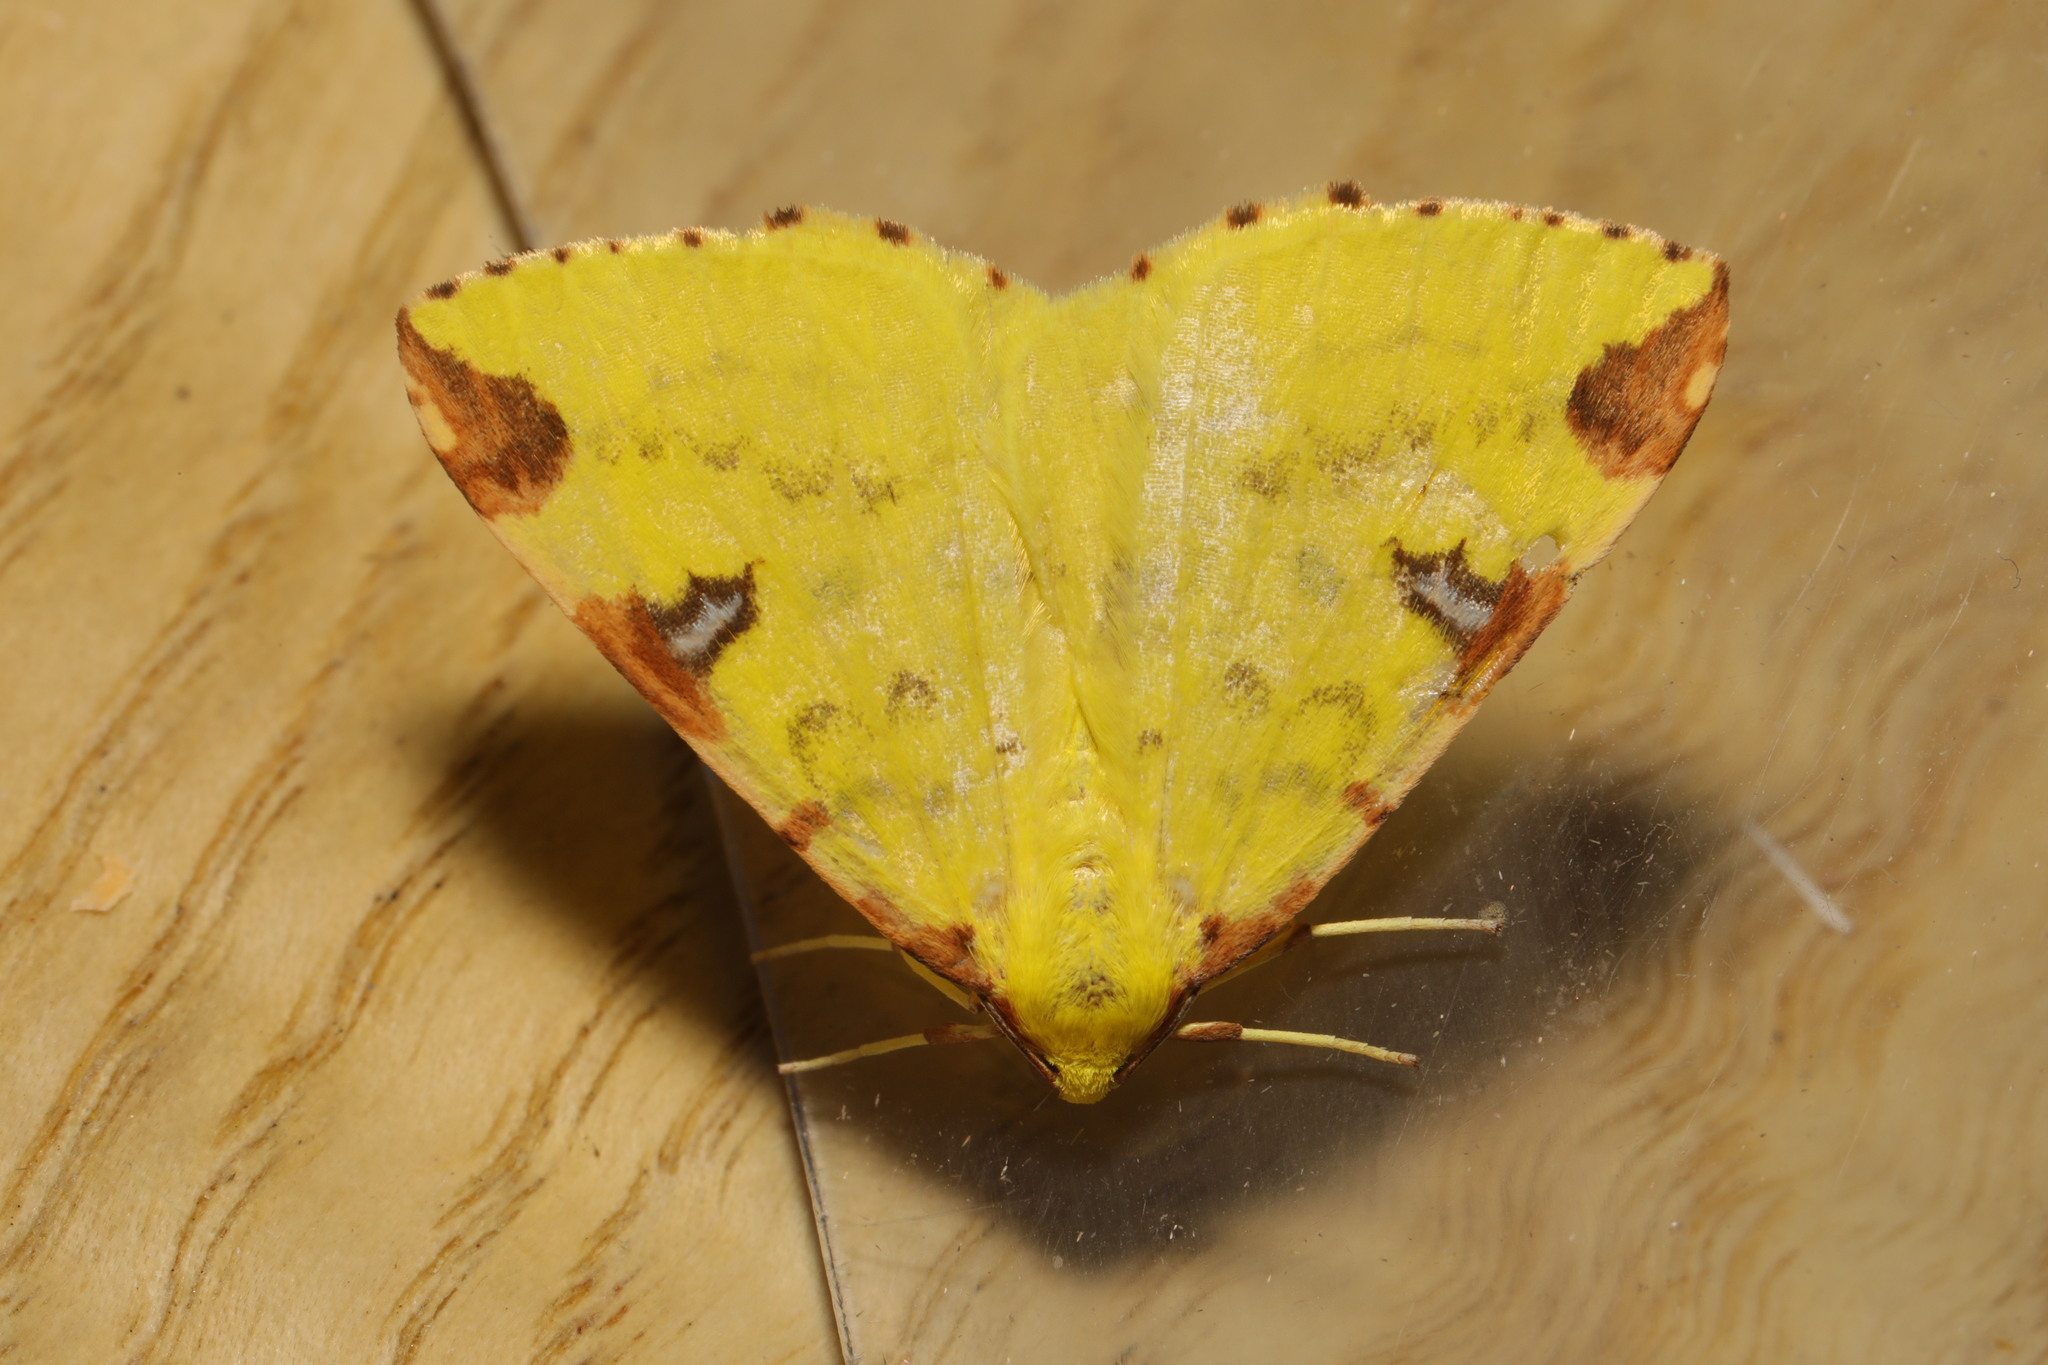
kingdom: Animalia
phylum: Arthropoda
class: Insecta
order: Lepidoptera
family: Geometridae
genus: Opisthograptis
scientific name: Opisthograptis luteolata
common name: Brimstone moth
